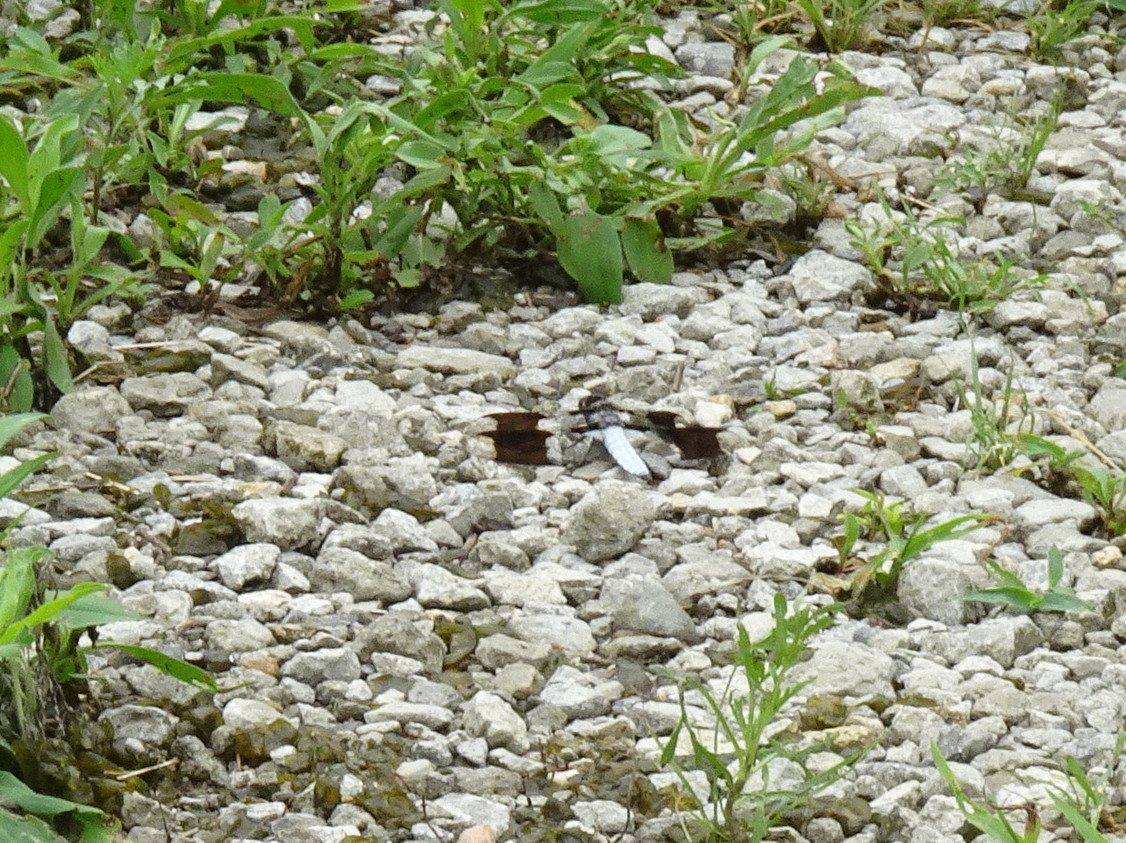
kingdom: Animalia
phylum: Arthropoda
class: Insecta
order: Odonata
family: Libellulidae
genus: Plathemis
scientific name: Plathemis lydia
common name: Common whitetail
